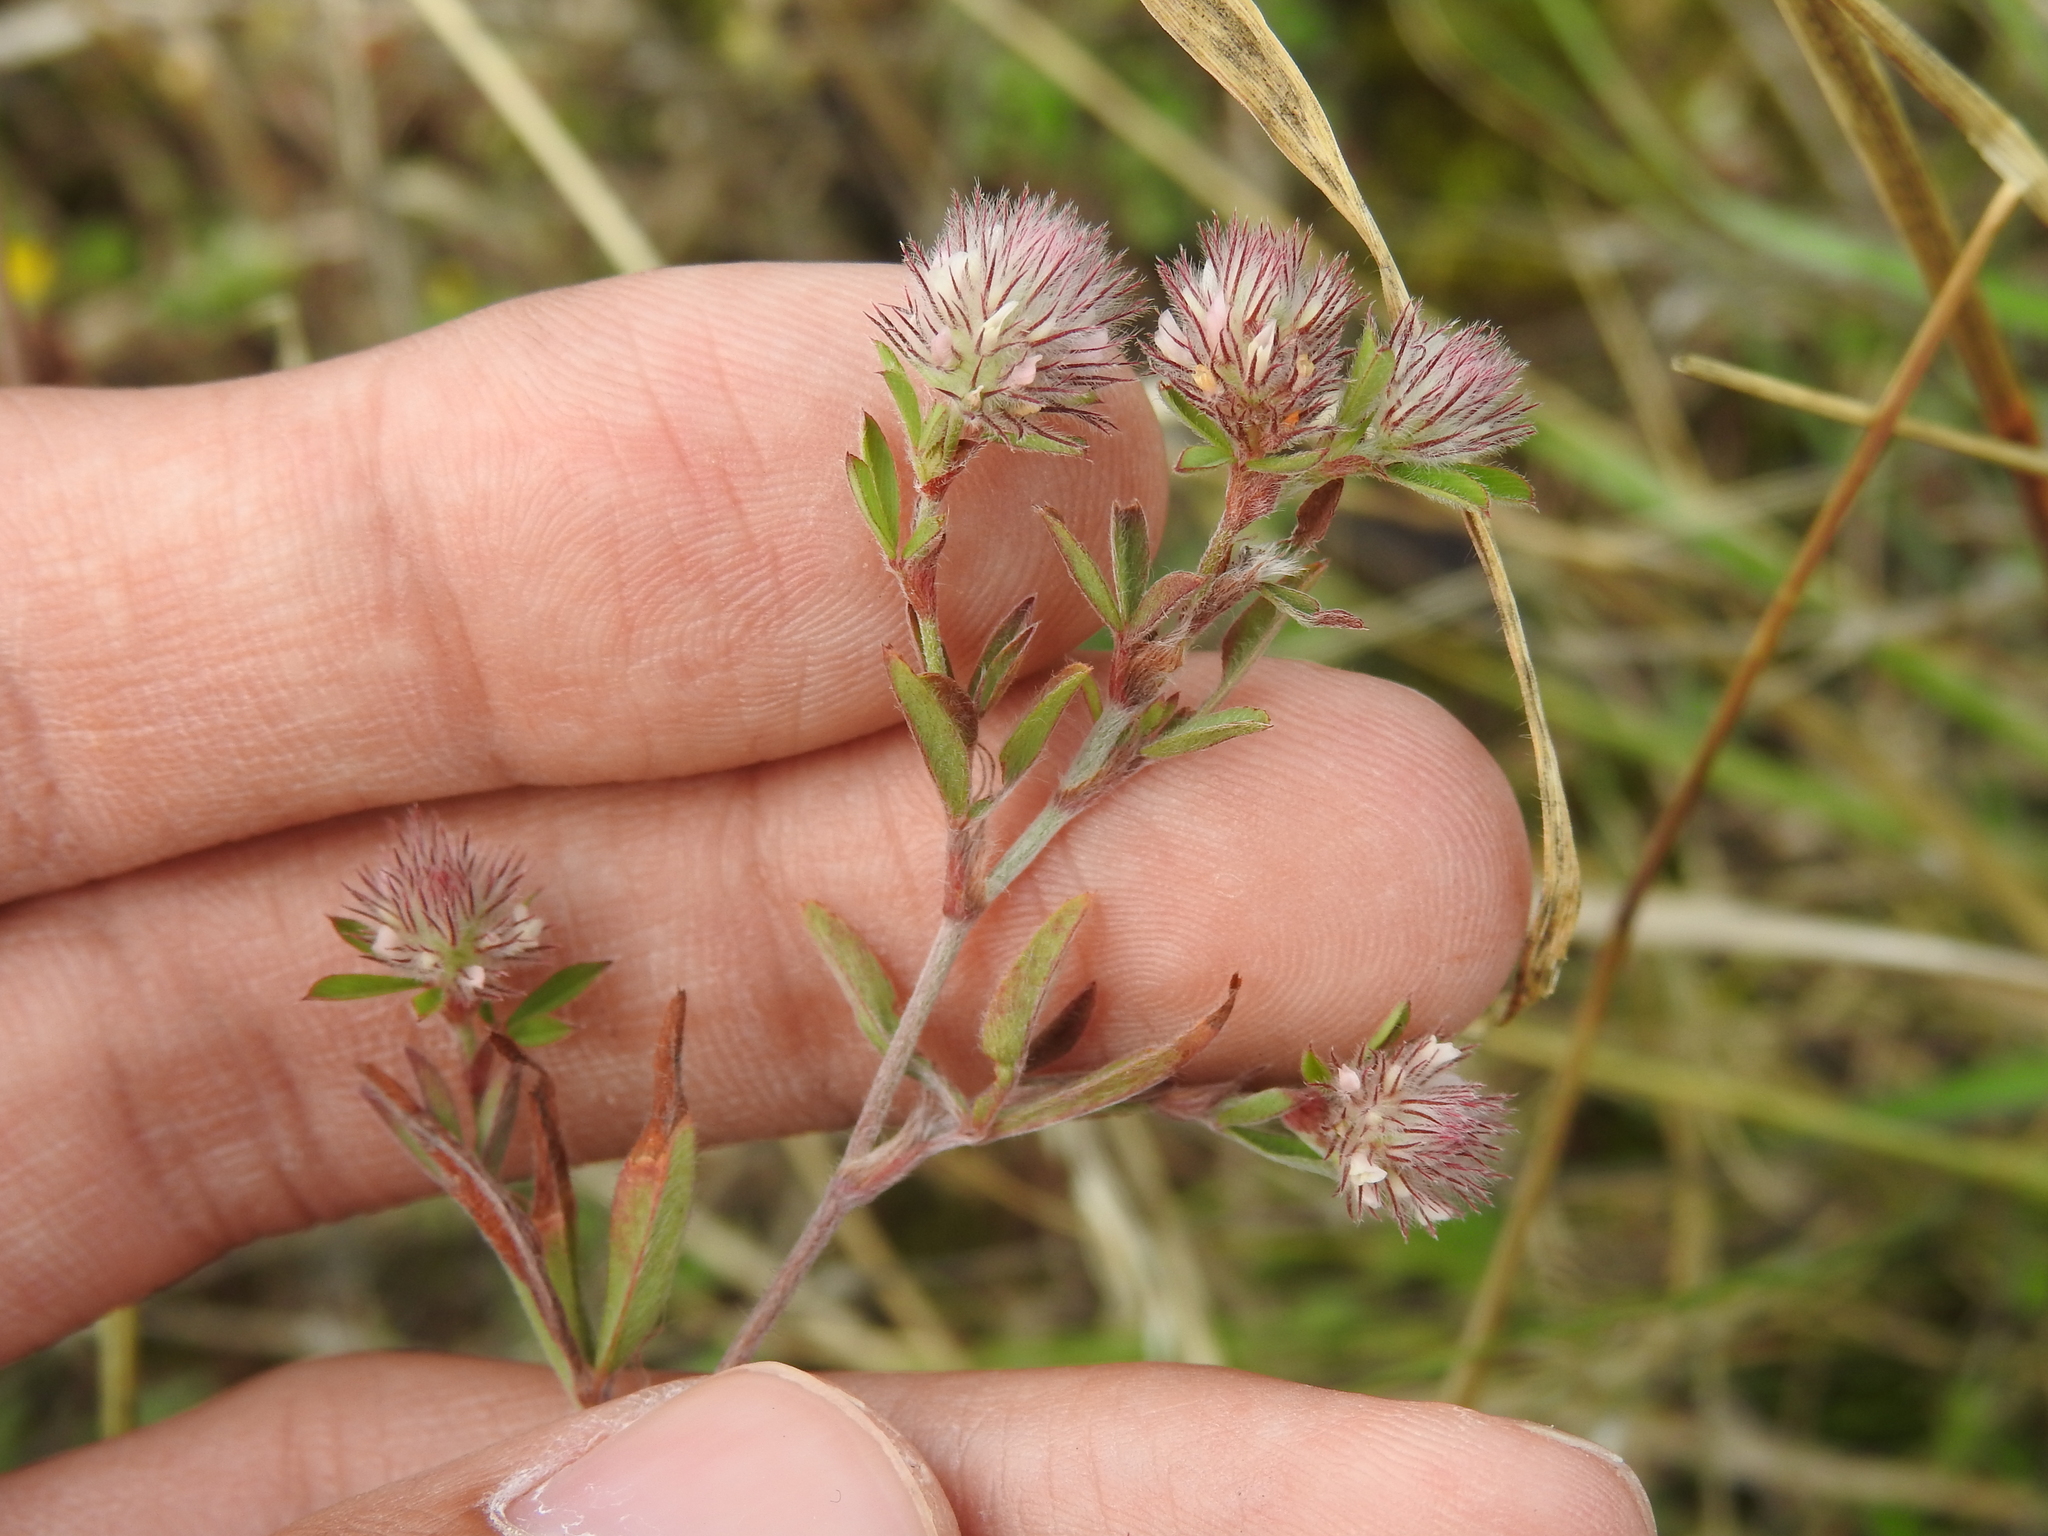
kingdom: Plantae
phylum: Tracheophyta
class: Magnoliopsida
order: Fabales
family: Fabaceae
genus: Trifolium
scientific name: Trifolium arvense
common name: Hare's-foot clover
